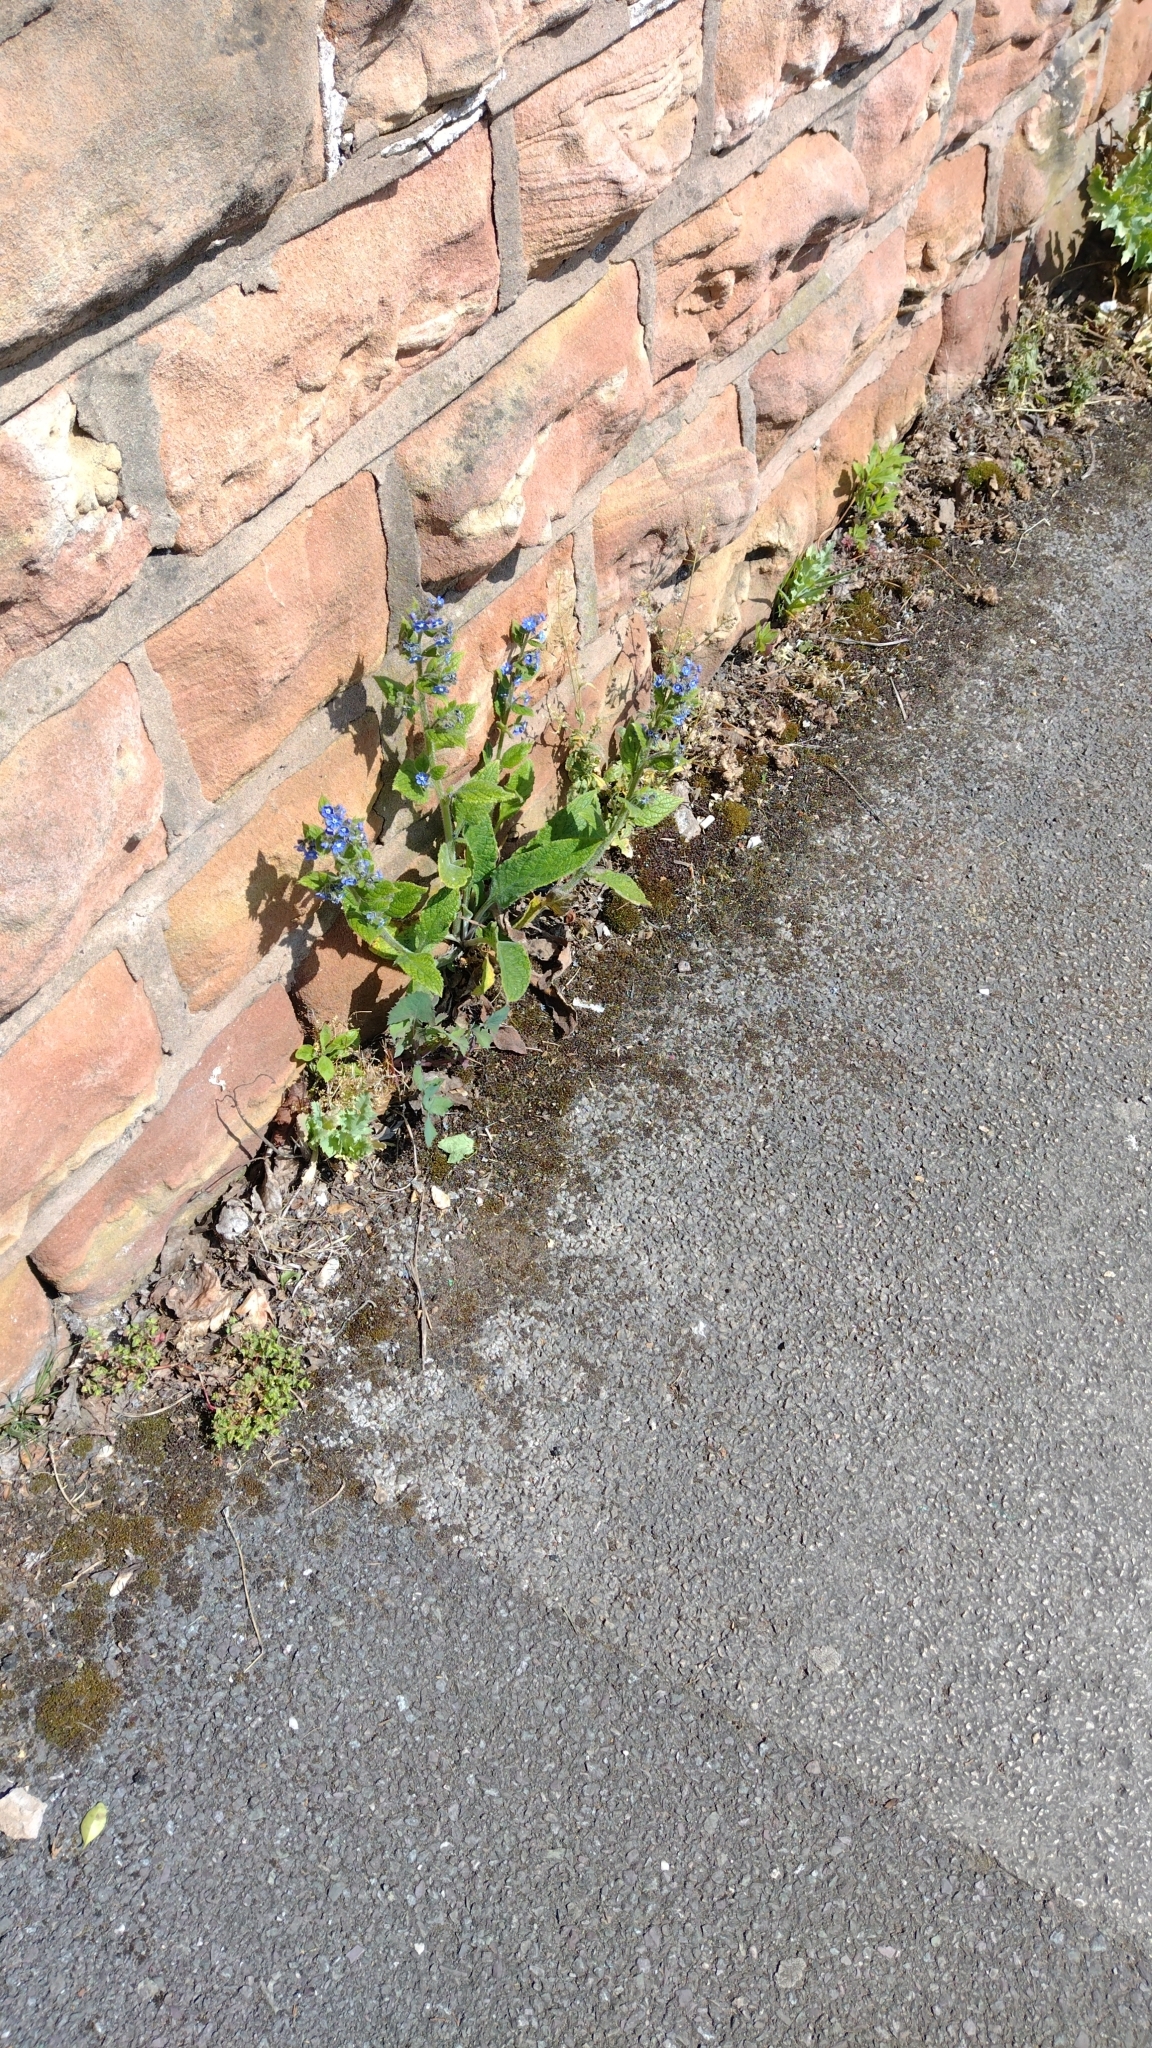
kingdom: Plantae
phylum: Tracheophyta
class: Magnoliopsida
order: Boraginales
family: Boraginaceae
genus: Pentaglottis
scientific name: Pentaglottis sempervirens
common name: Green alkanet
